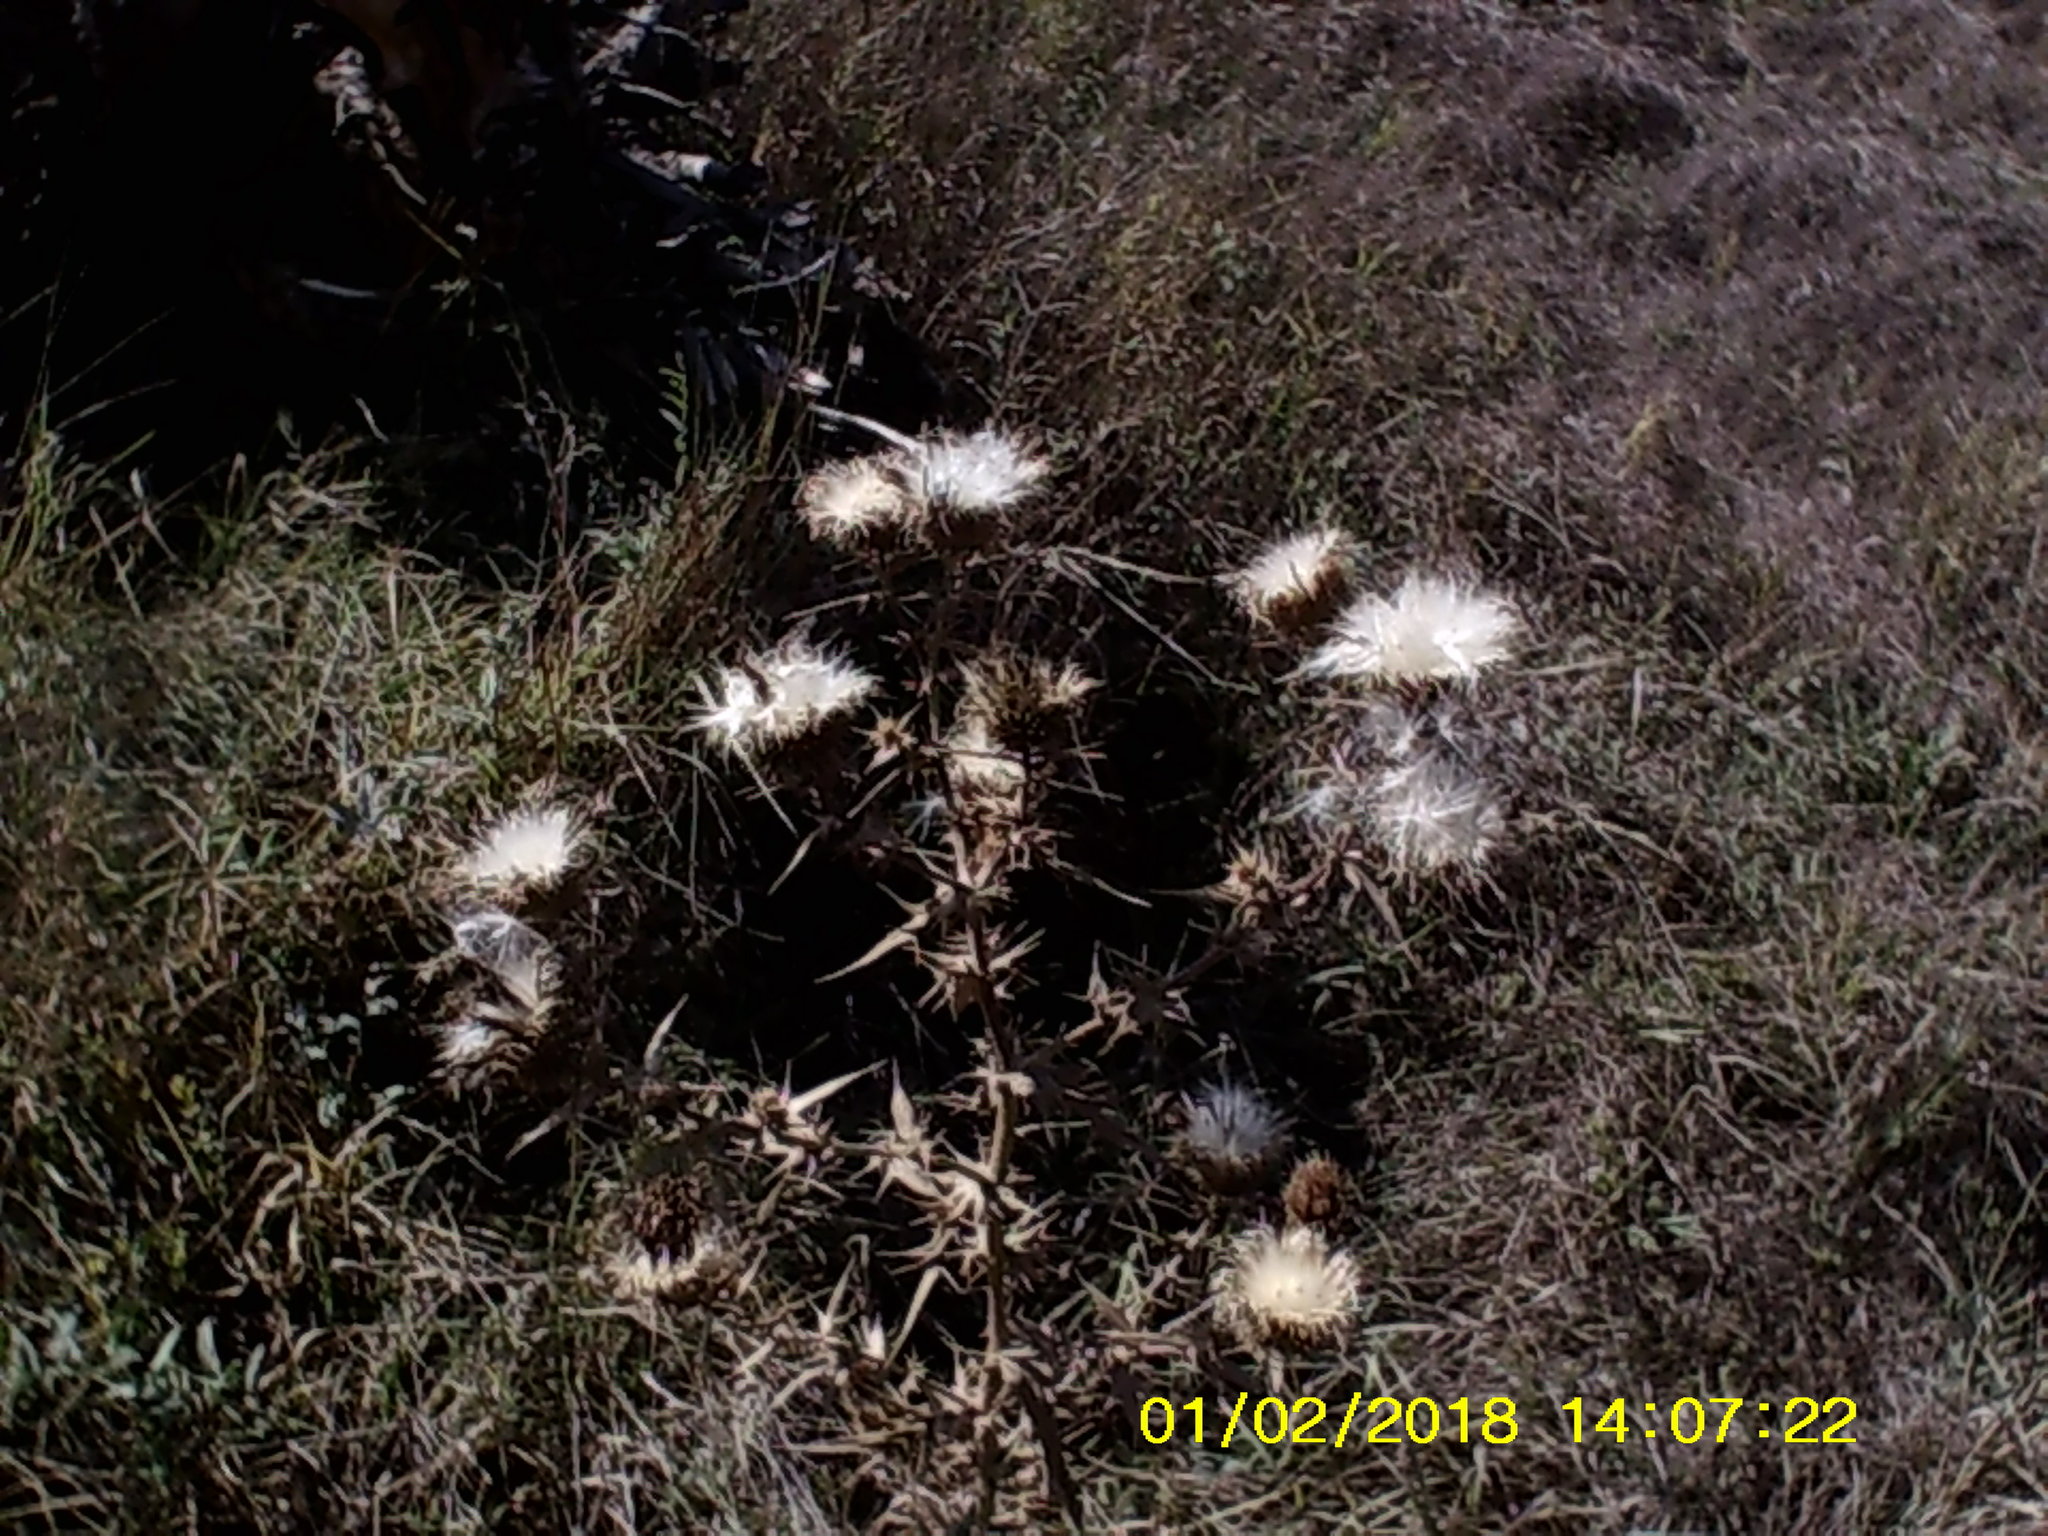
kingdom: Plantae
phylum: Tracheophyta
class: Magnoliopsida
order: Asterales
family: Asteraceae
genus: Carlina
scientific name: Carlina vulgaris
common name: Carline thistle
